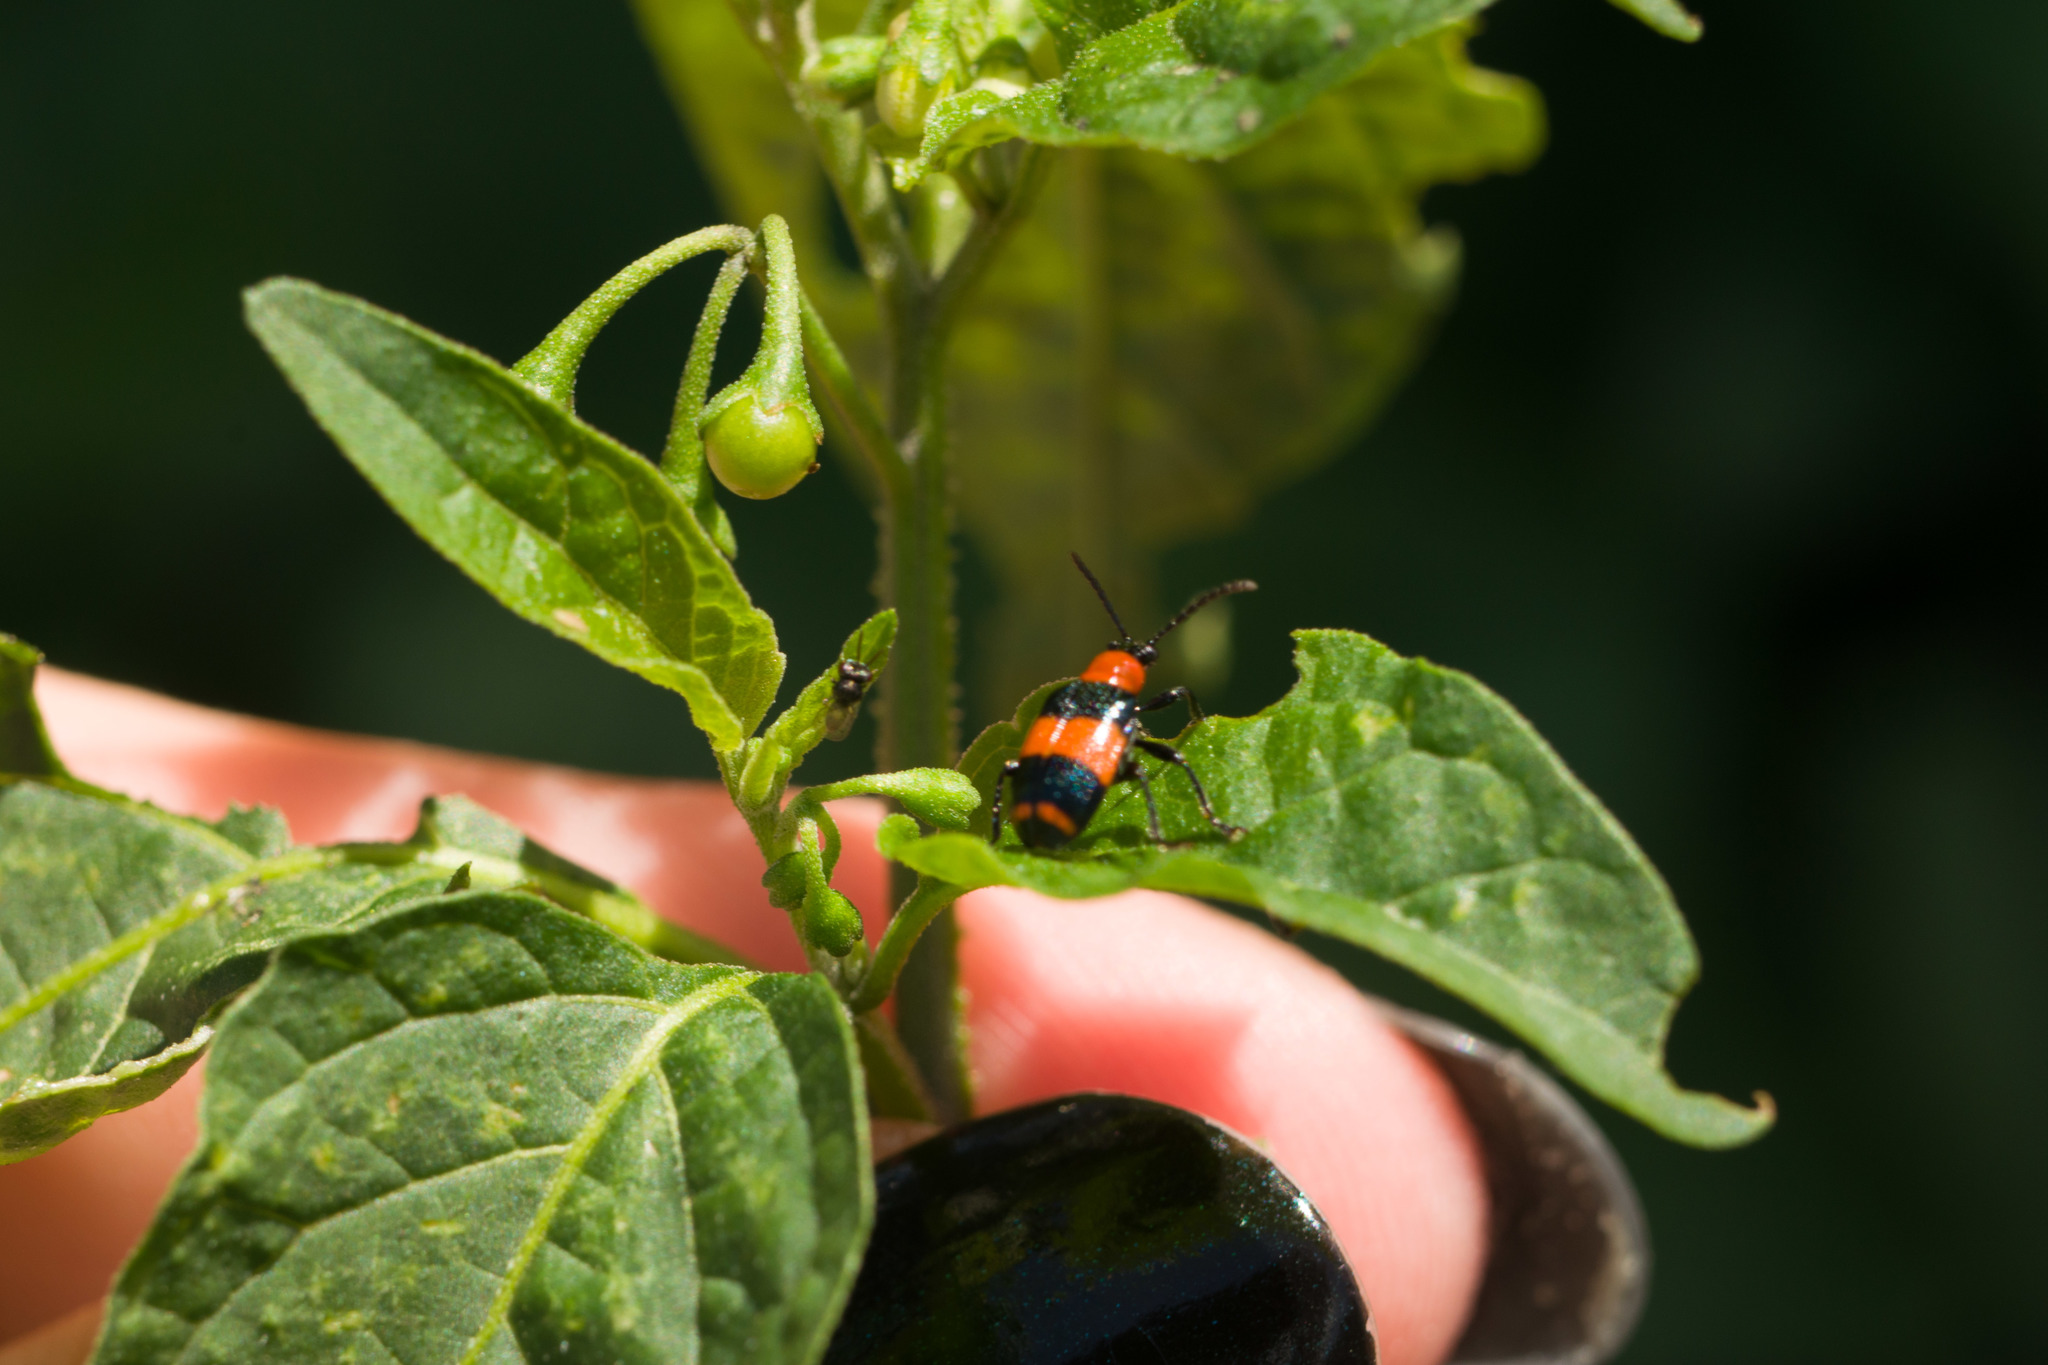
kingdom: Animalia
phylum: Arthropoda
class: Insecta
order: Coleoptera
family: Chrysomelidae
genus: Lema
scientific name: Lema solani
